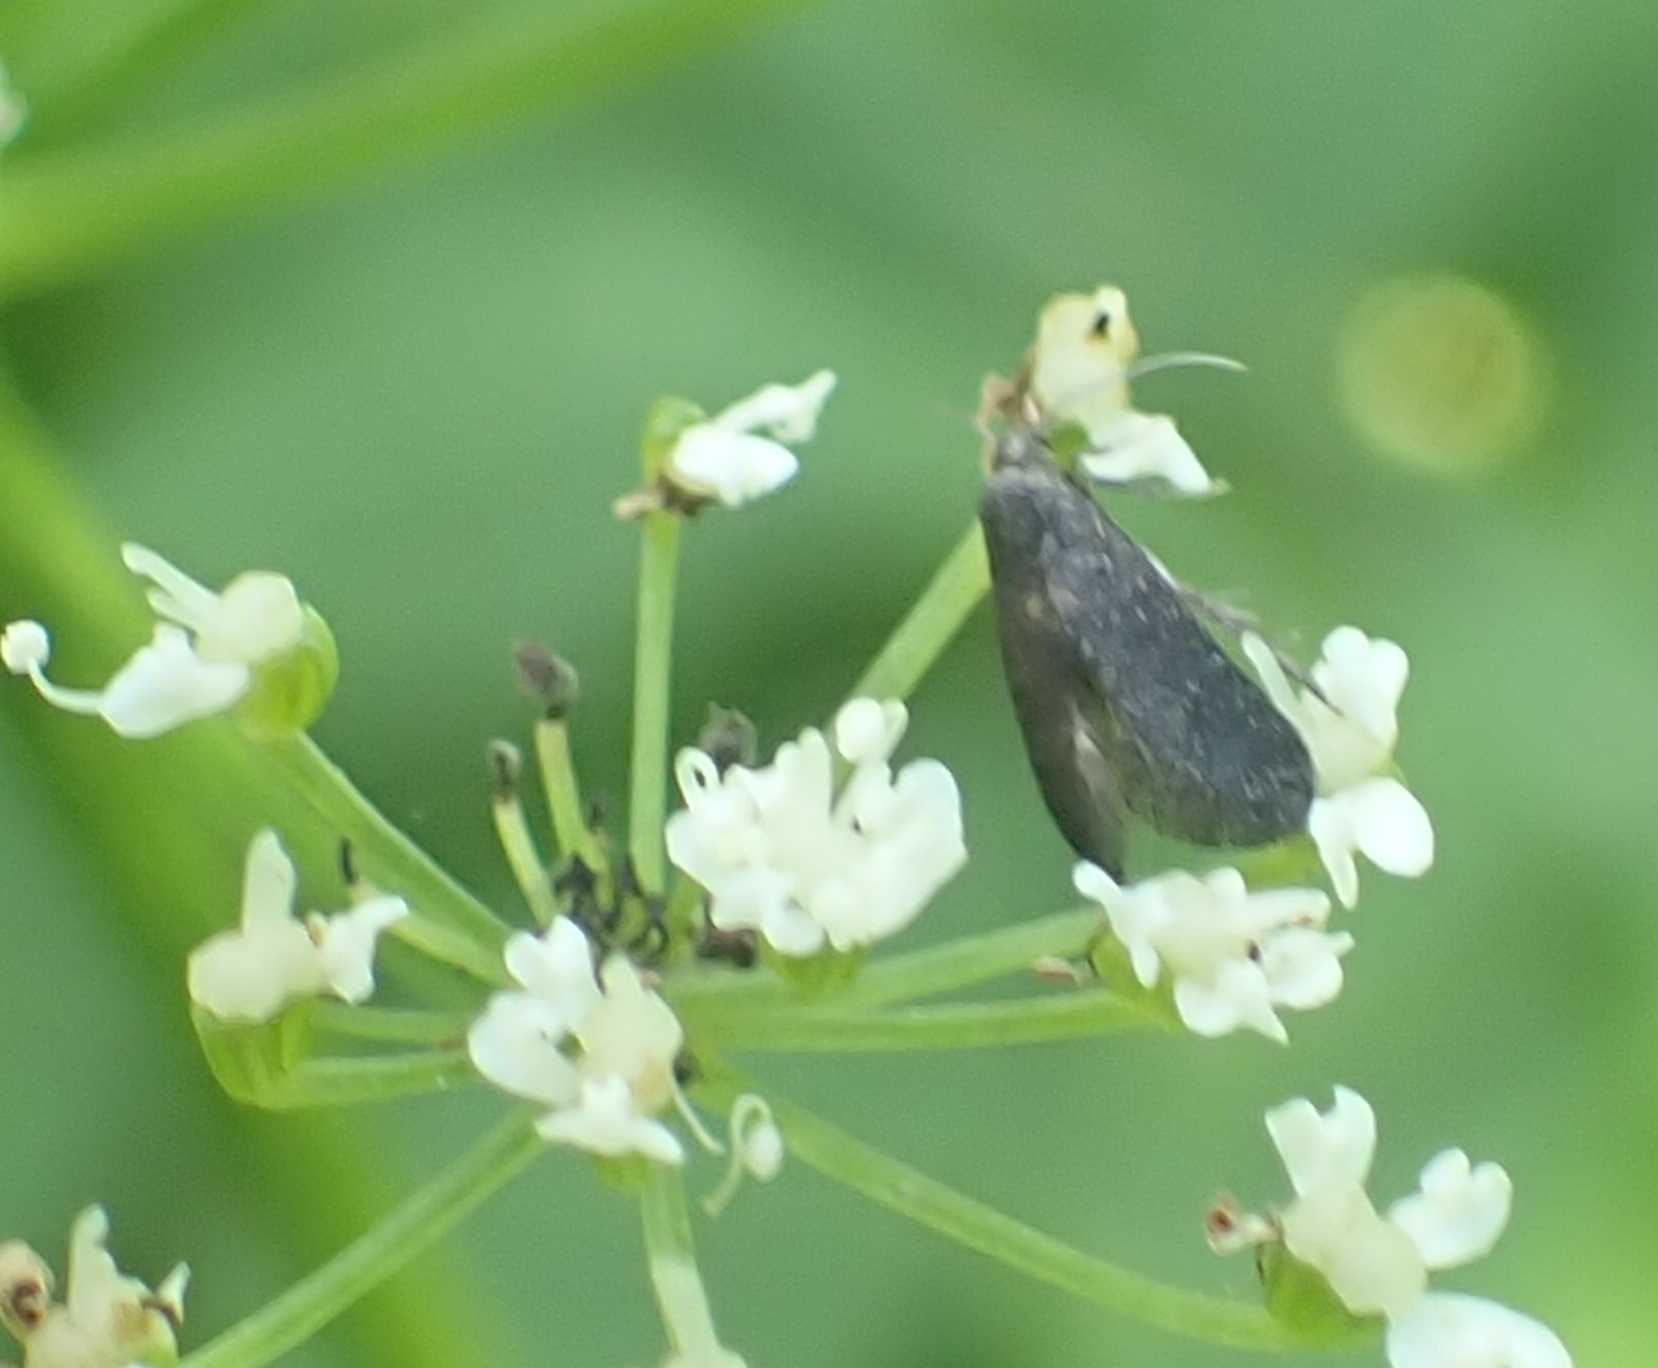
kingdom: Animalia
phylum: Arthropoda
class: Insecta
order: Lepidoptera
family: Epermeniidae
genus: Phaulernis
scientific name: Phaulernis dentella
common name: Scale-tooth lance-wing
